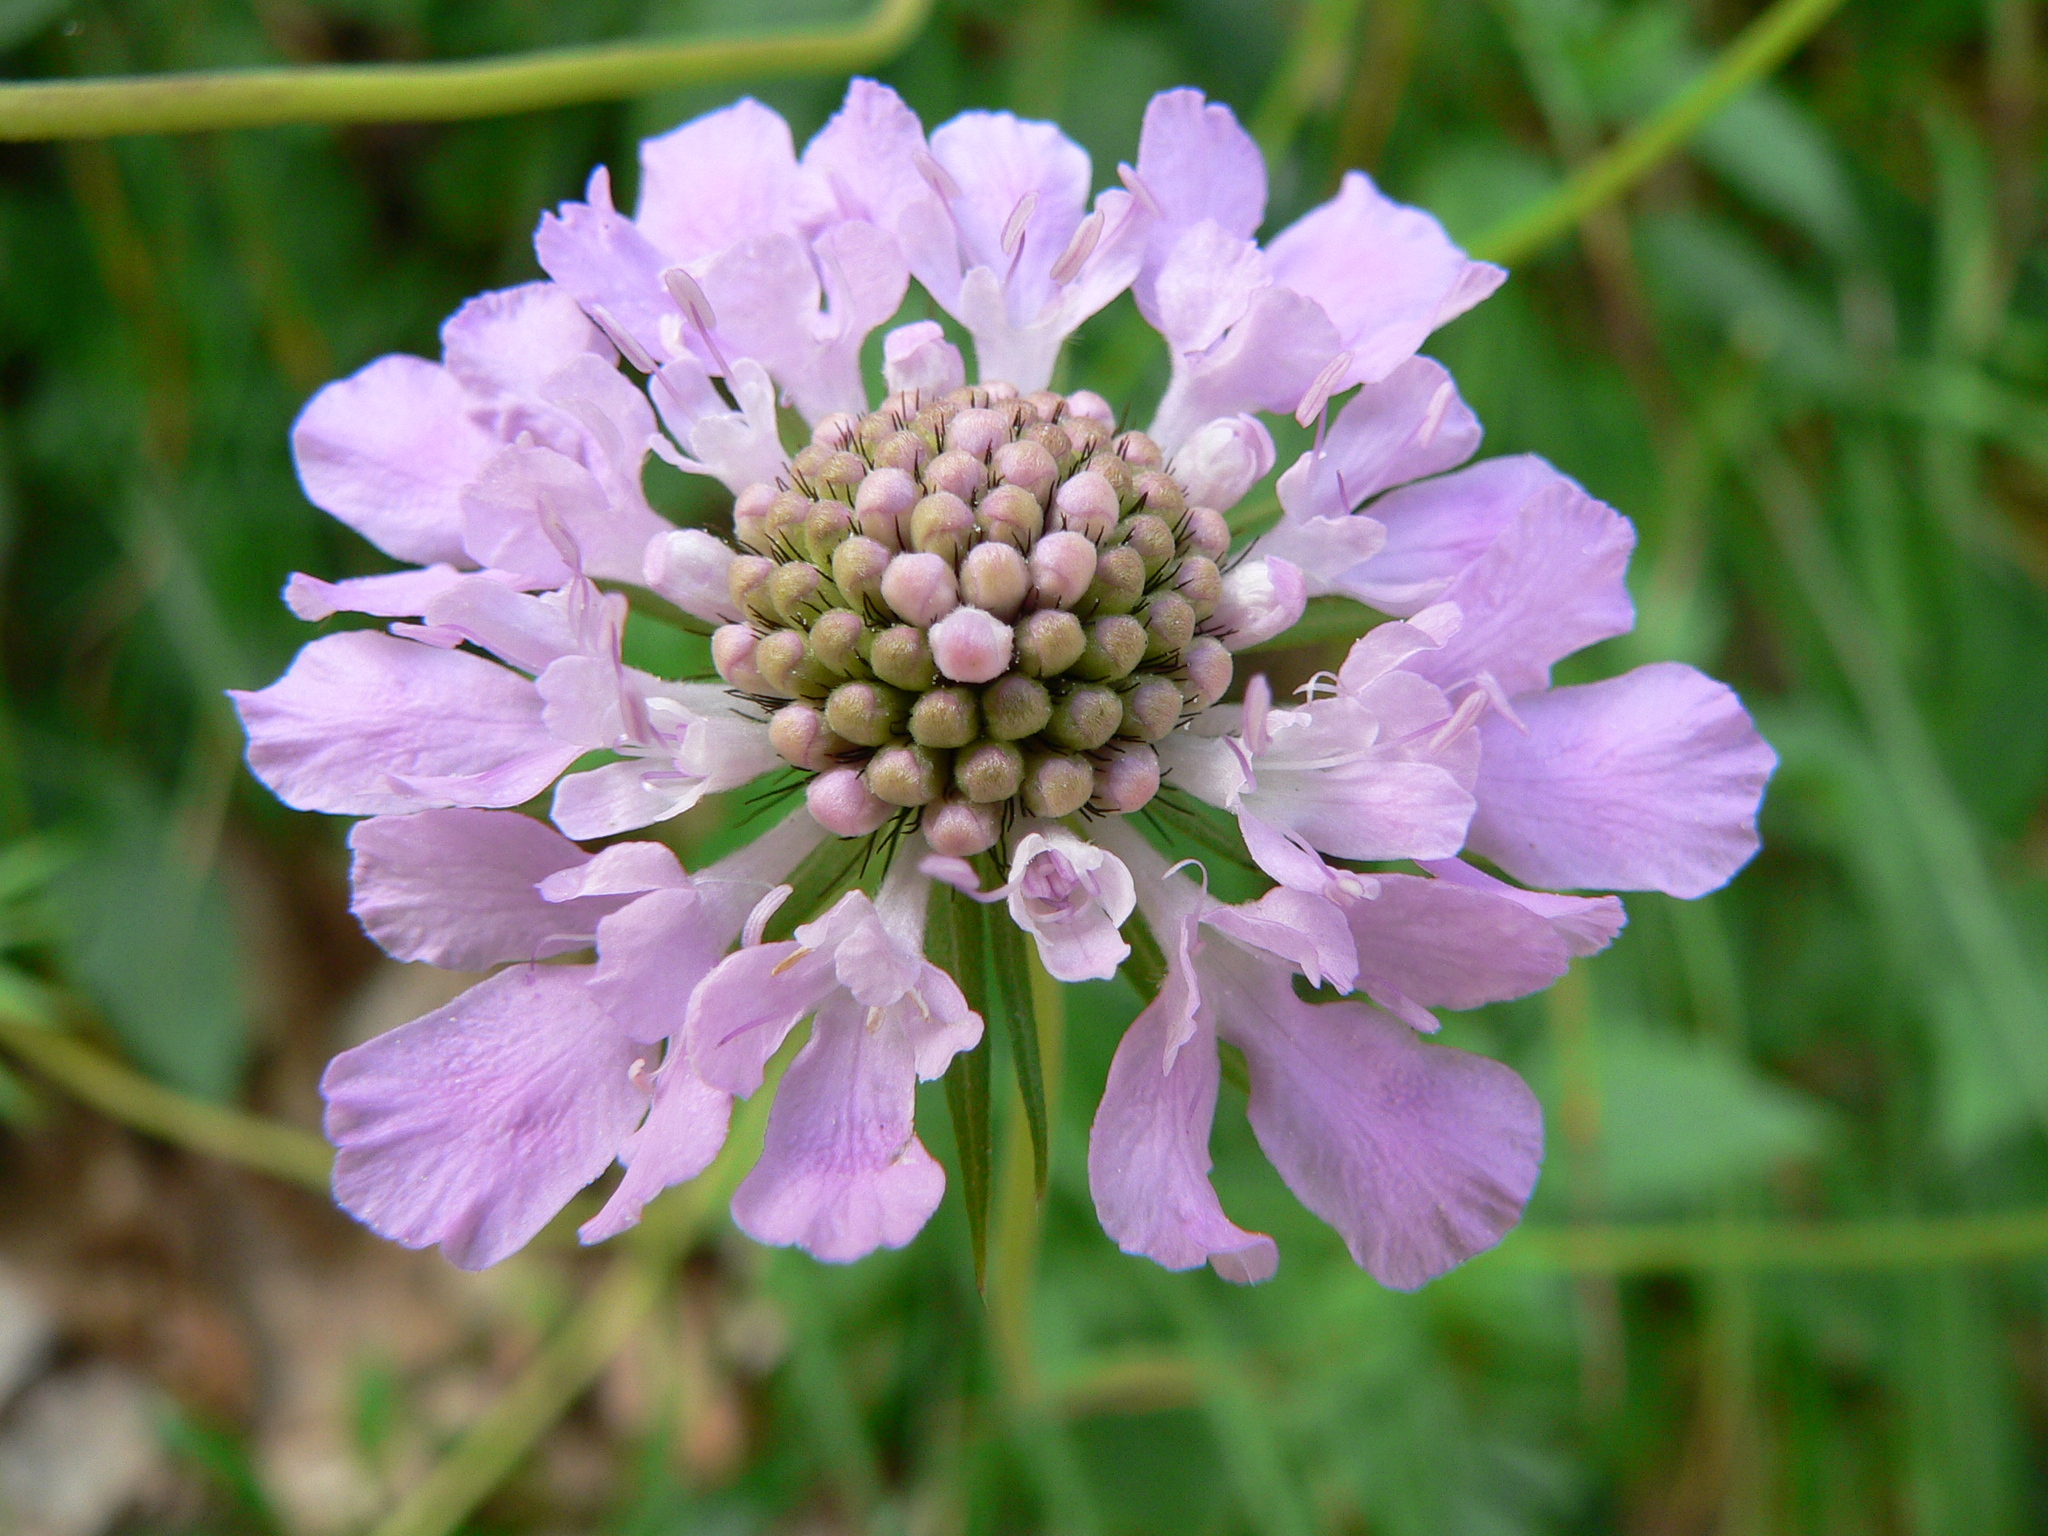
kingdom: Plantae
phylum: Tracheophyta
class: Magnoliopsida
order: Dipsacales
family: Caprifoliaceae
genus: Scabiosa
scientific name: Scabiosa columbaria
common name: Small scabious
